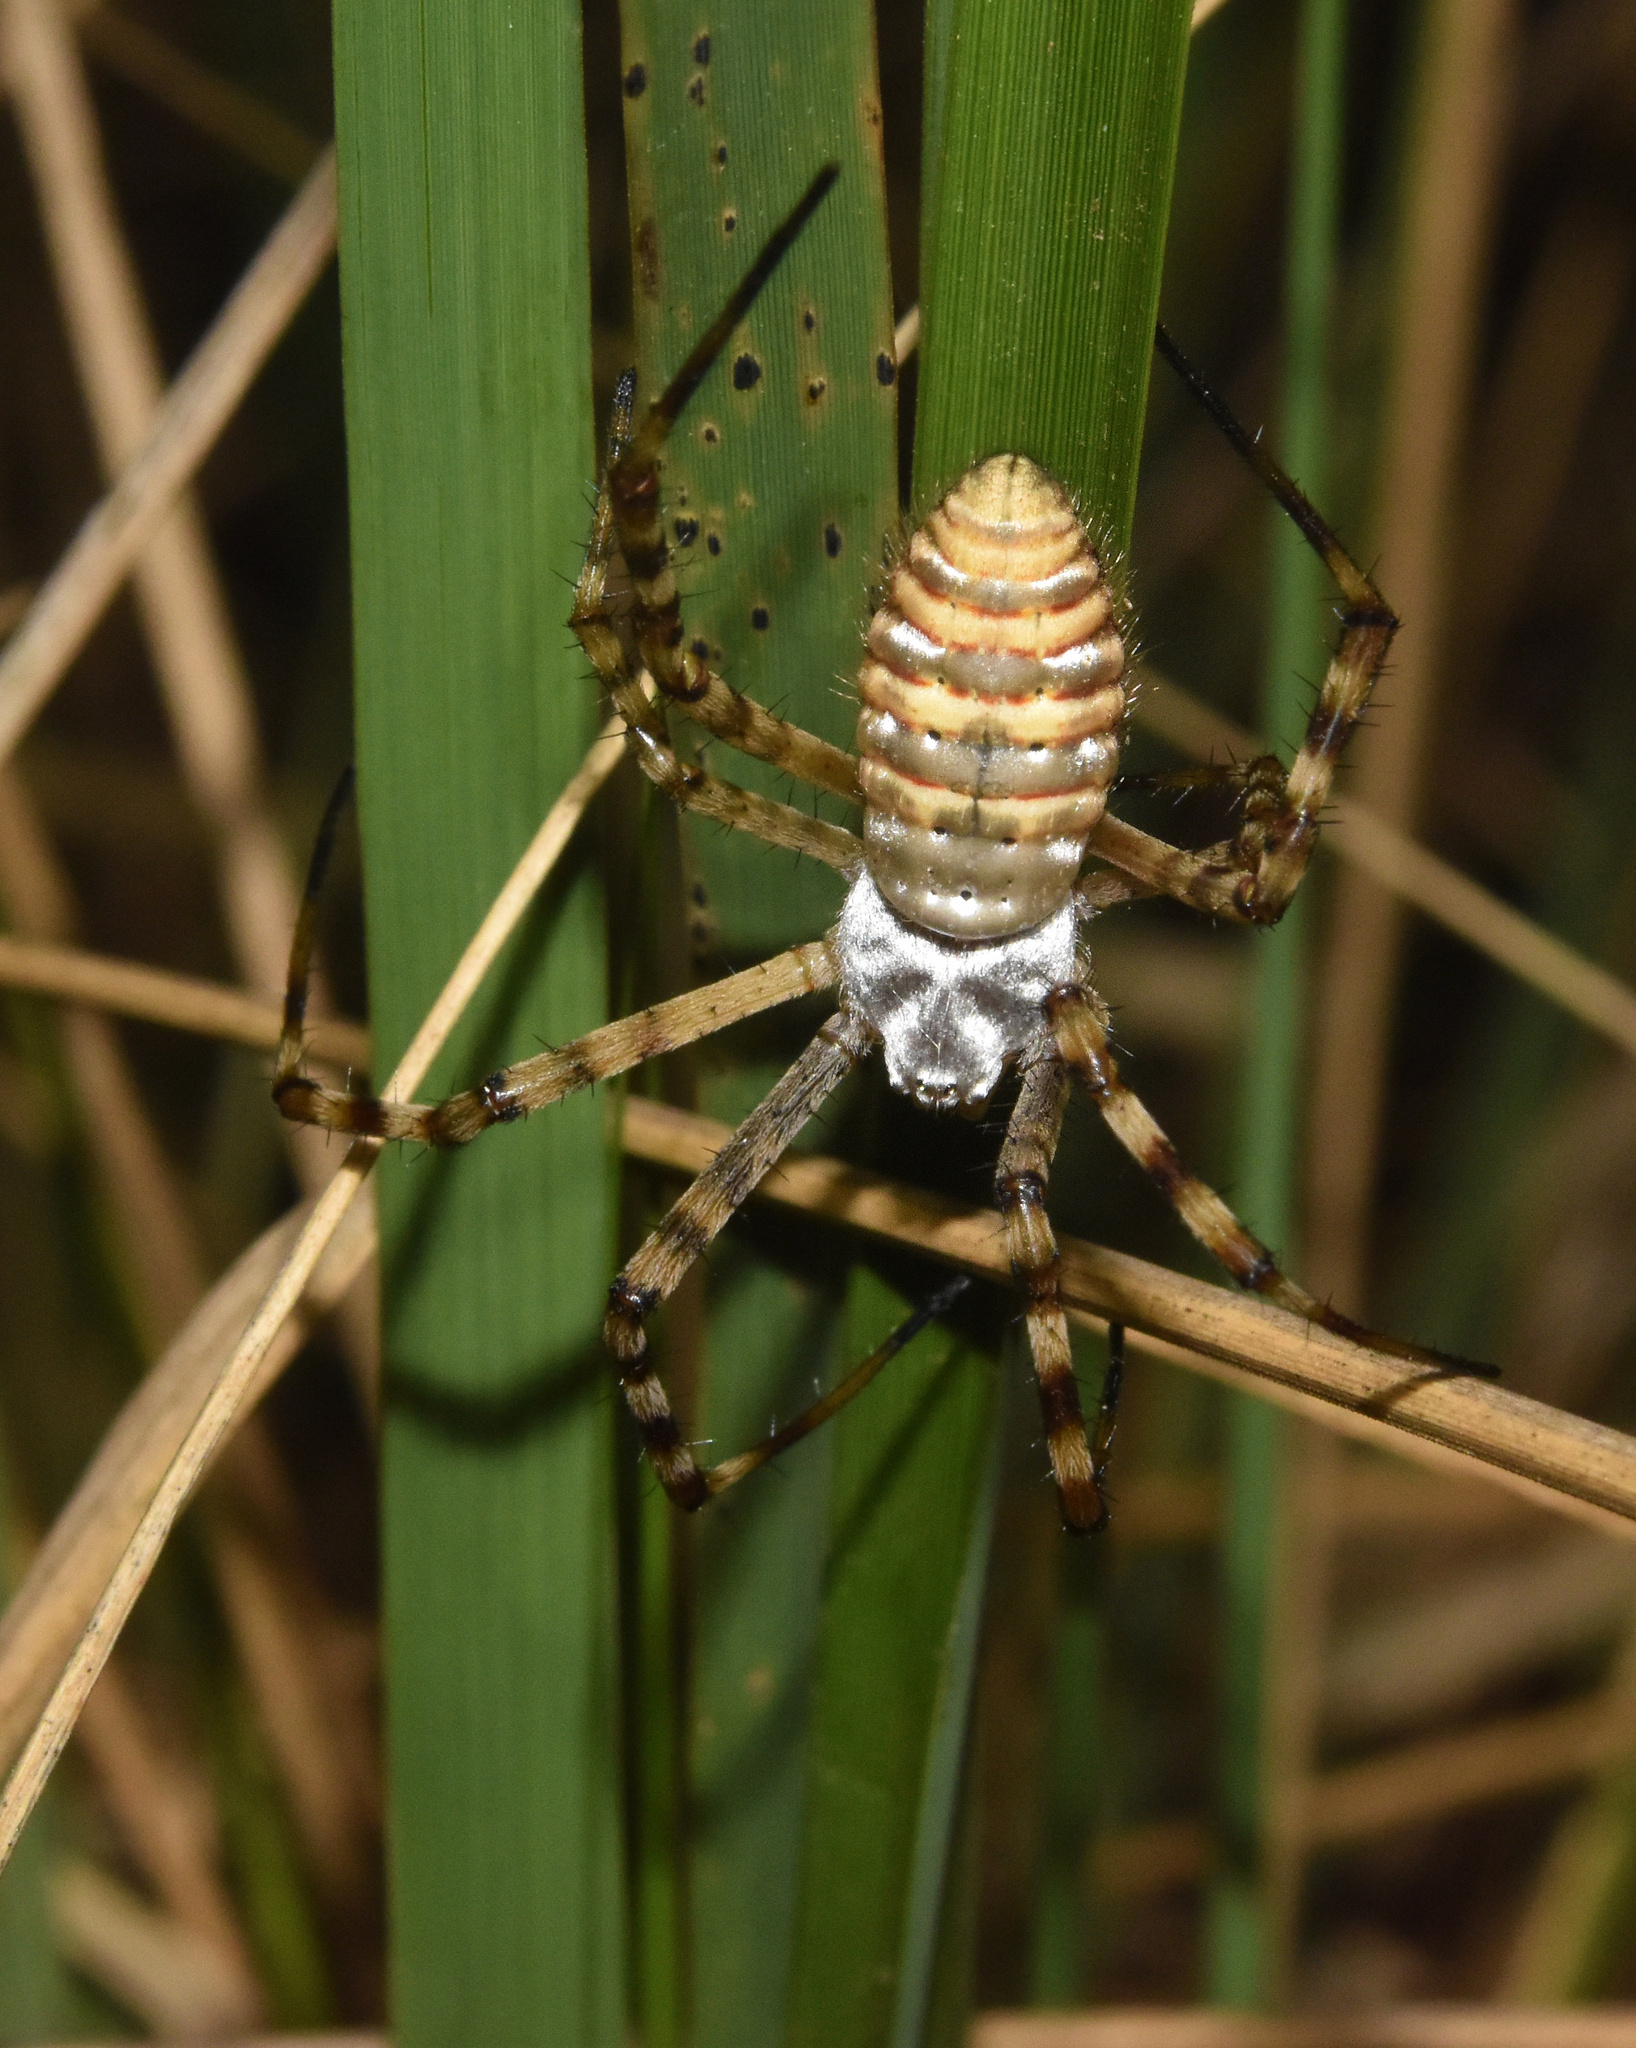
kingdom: Animalia
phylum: Arthropoda
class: Arachnida
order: Araneae
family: Araneidae
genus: Argiope
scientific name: Argiope trifasciata
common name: Banded garden spider
